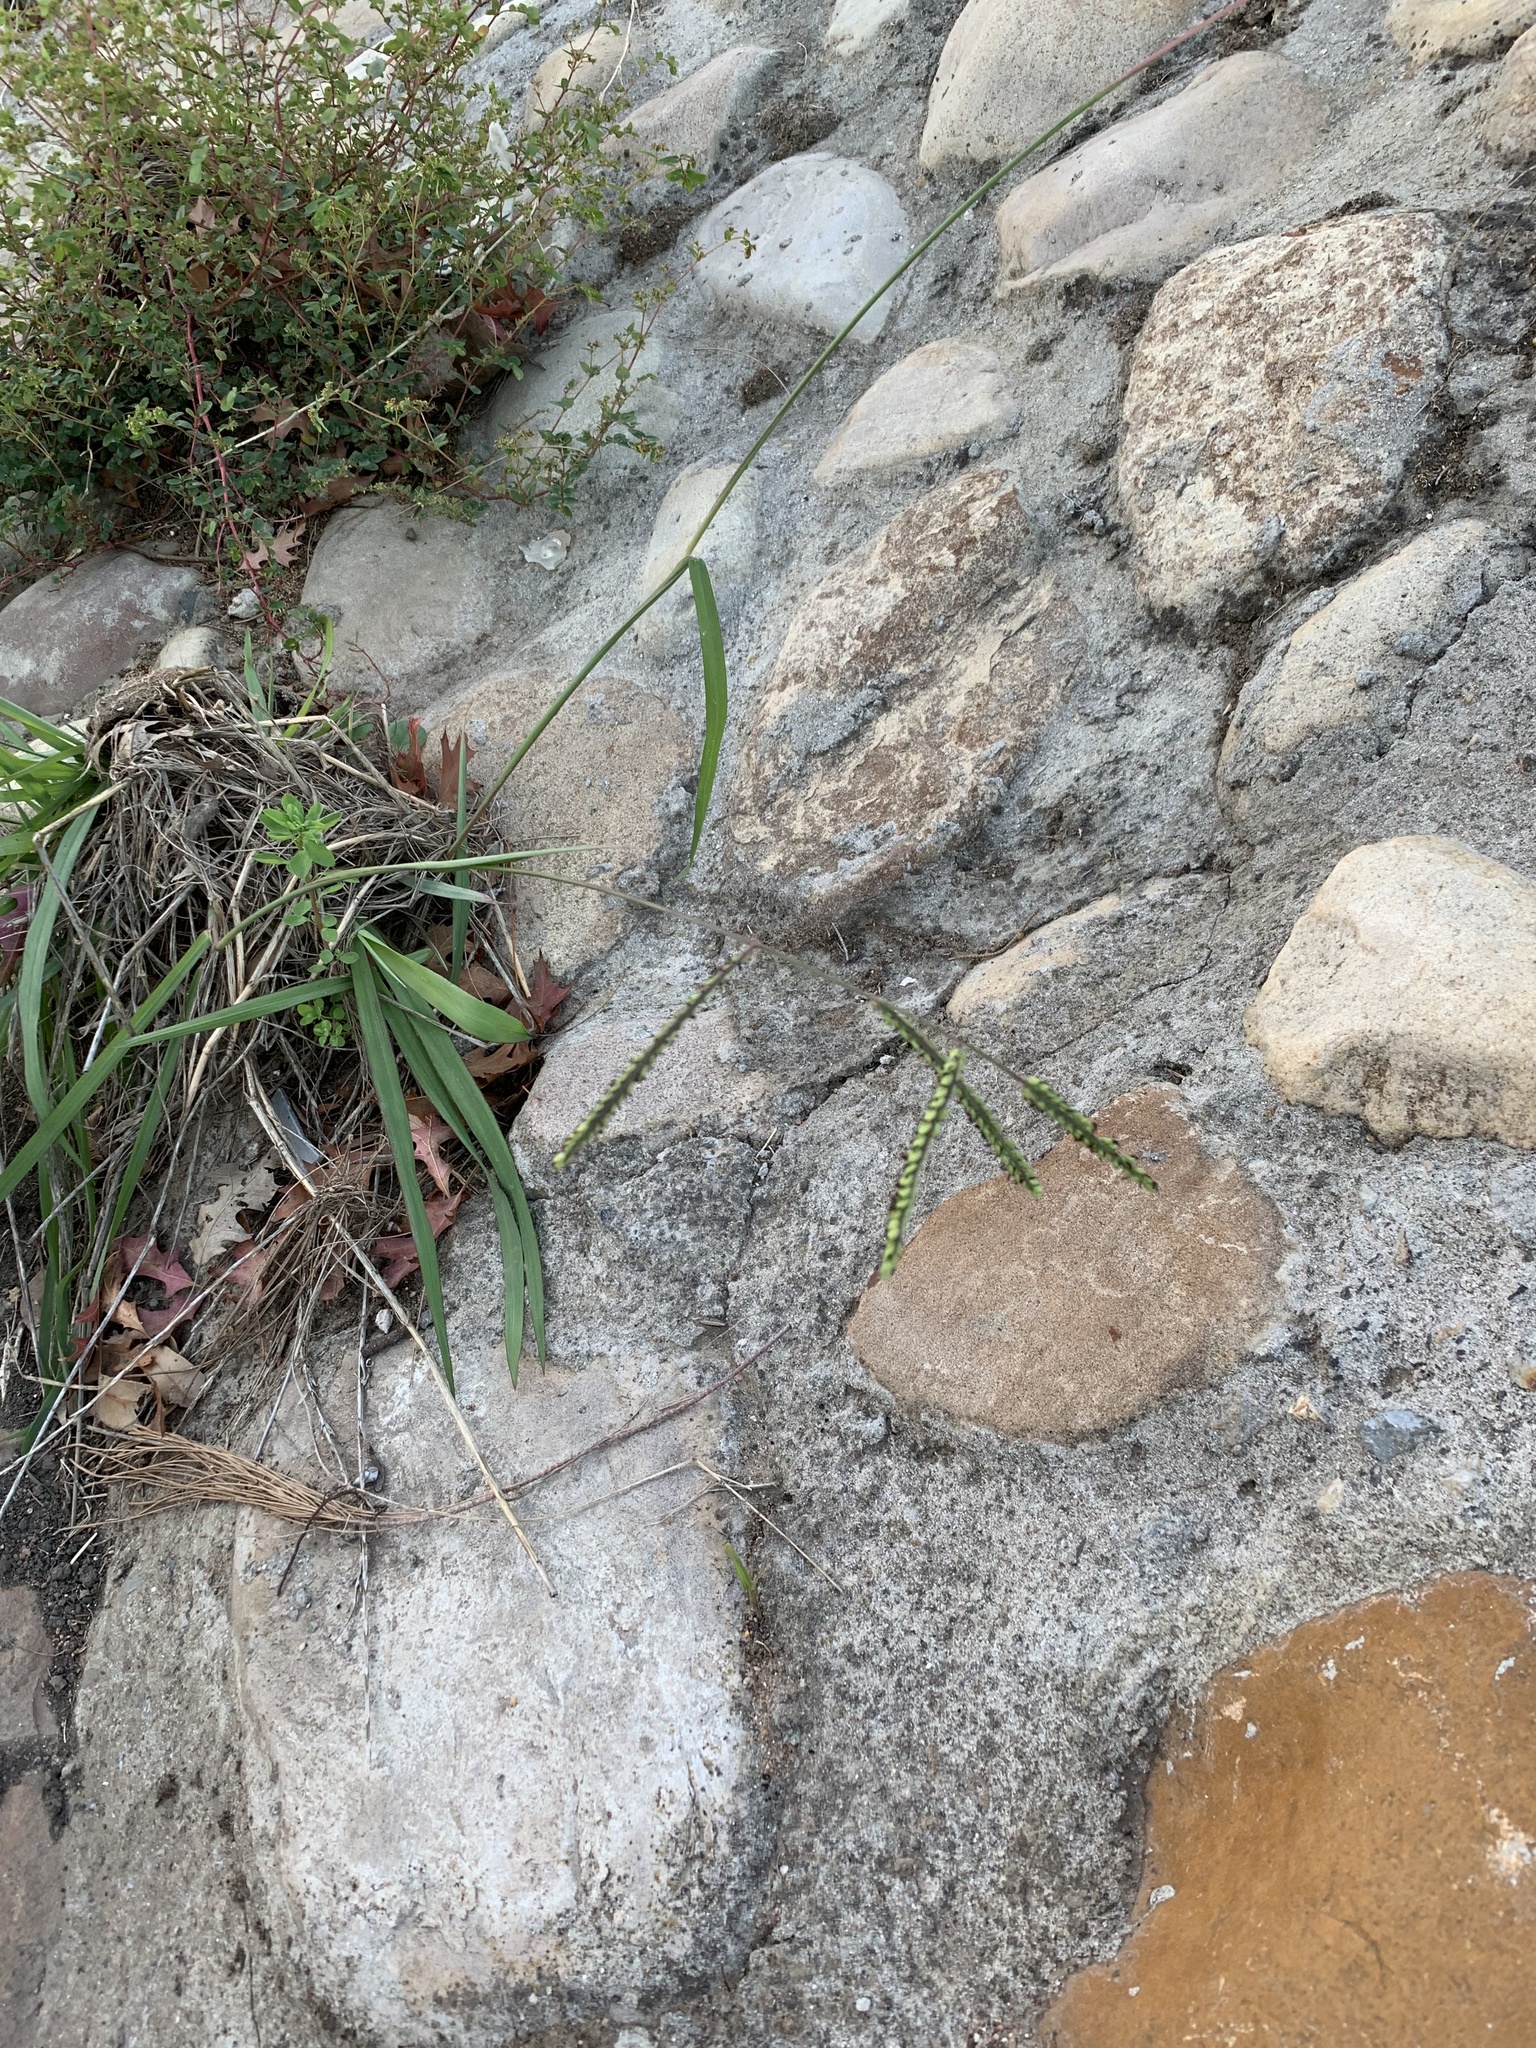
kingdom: Plantae
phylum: Tracheophyta
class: Liliopsida
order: Poales
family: Poaceae
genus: Paspalum
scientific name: Paspalum dilatatum
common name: Dallisgrass
